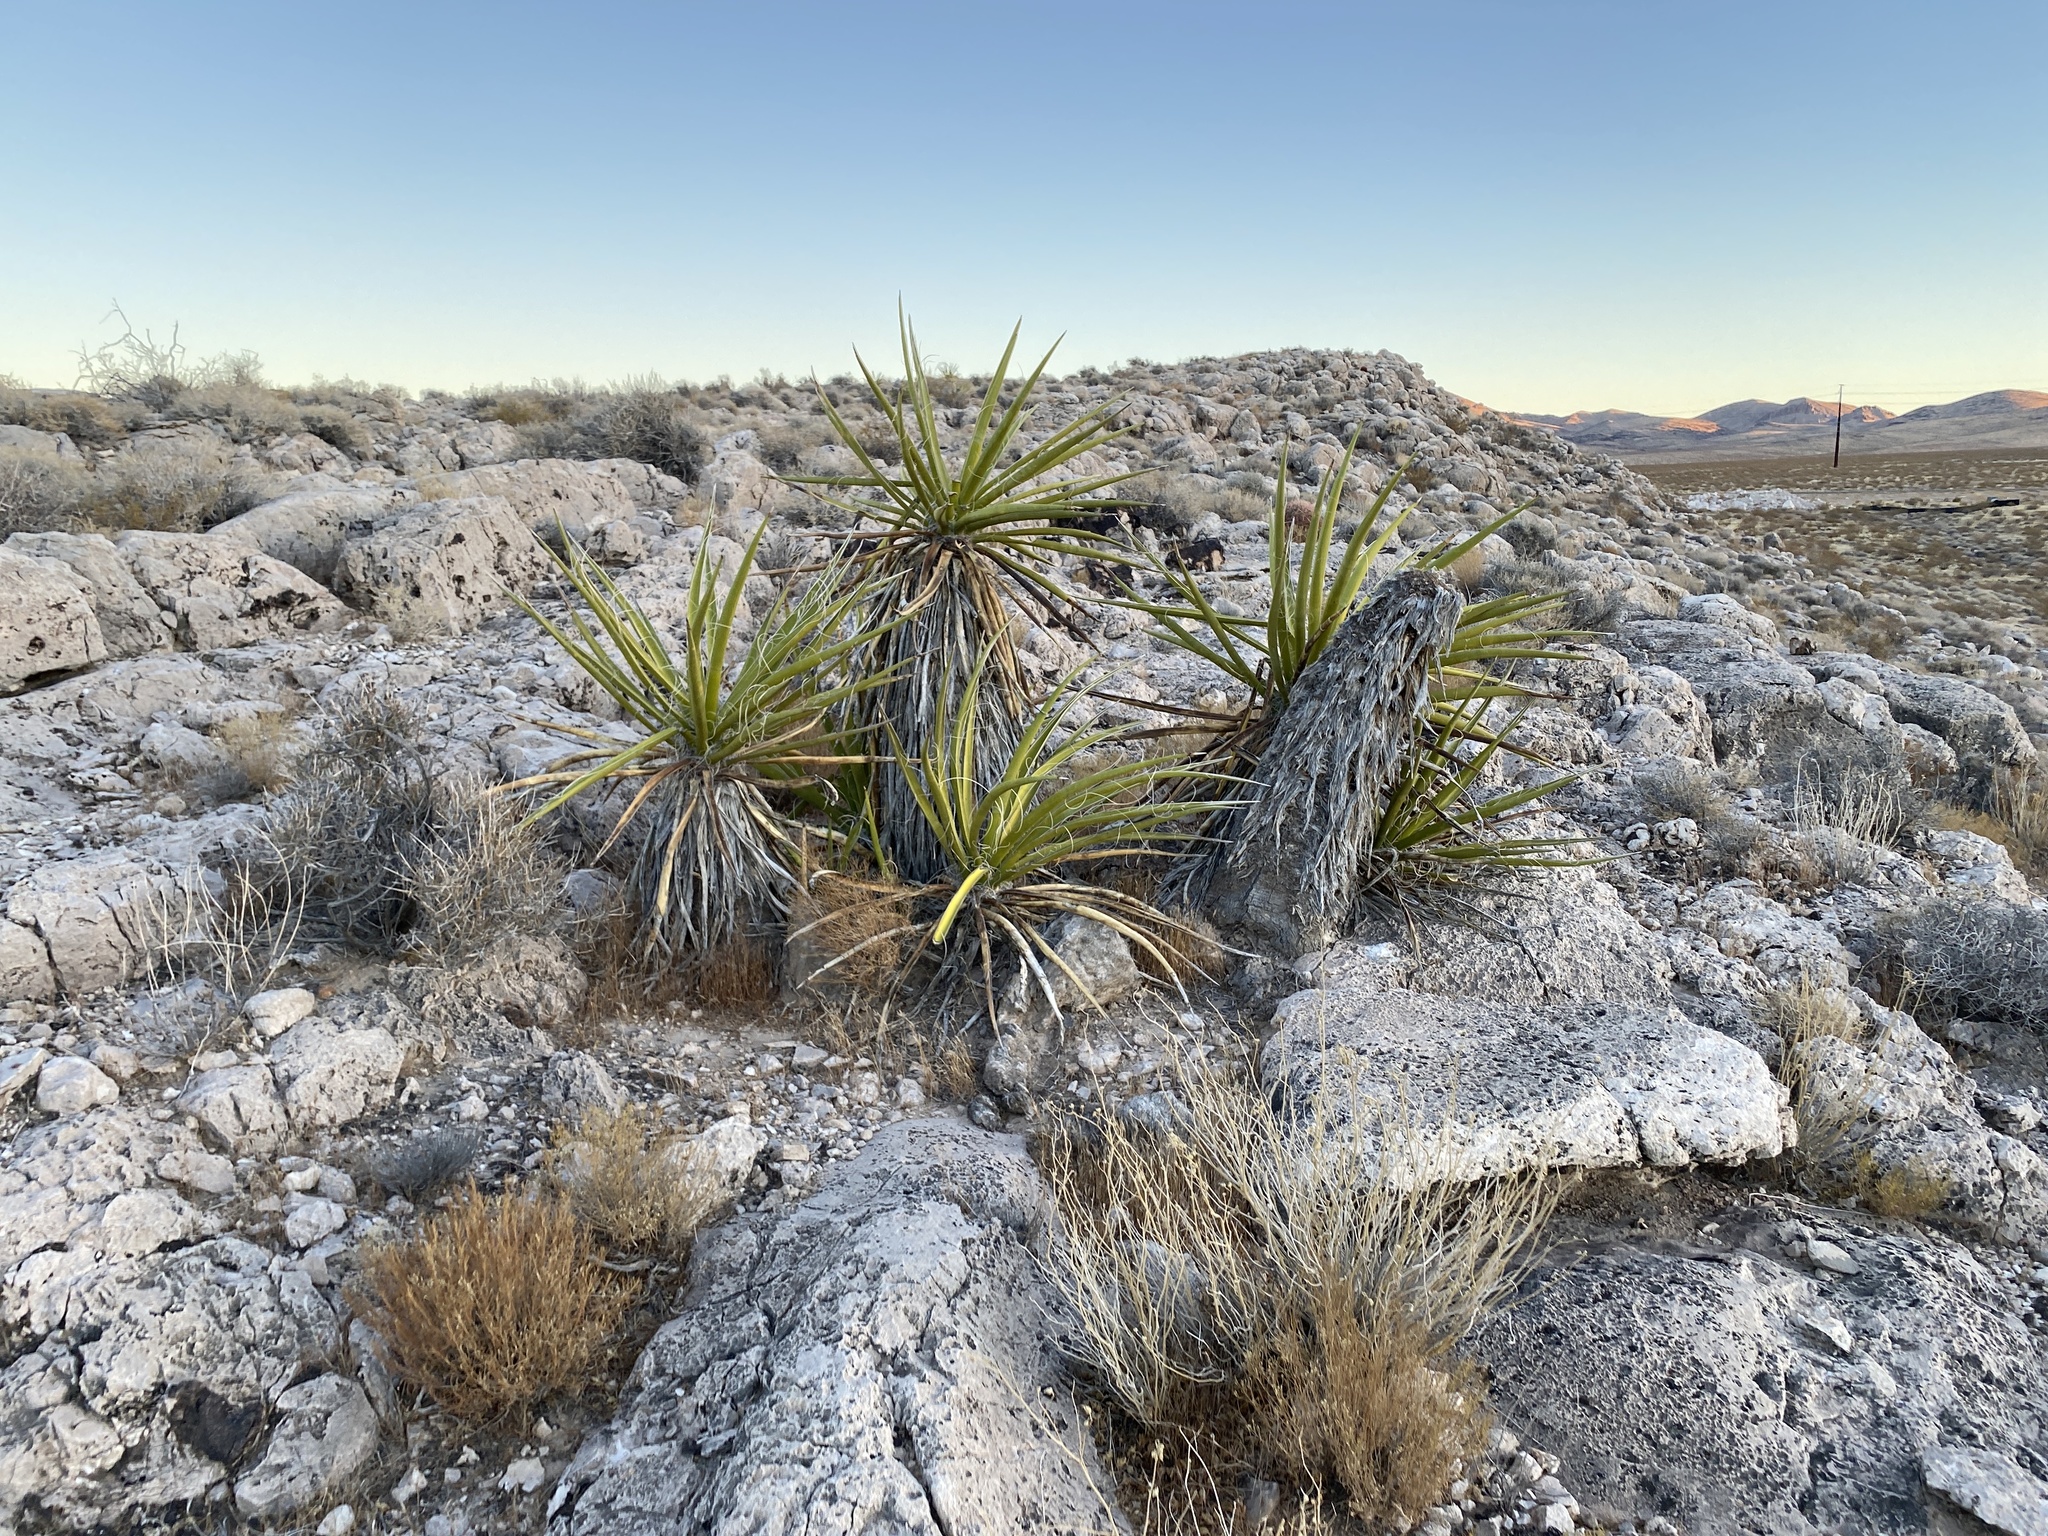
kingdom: Plantae
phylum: Tracheophyta
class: Liliopsida
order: Asparagales
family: Asparagaceae
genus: Yucca
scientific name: Yucca schidigera
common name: Mojave yucca
